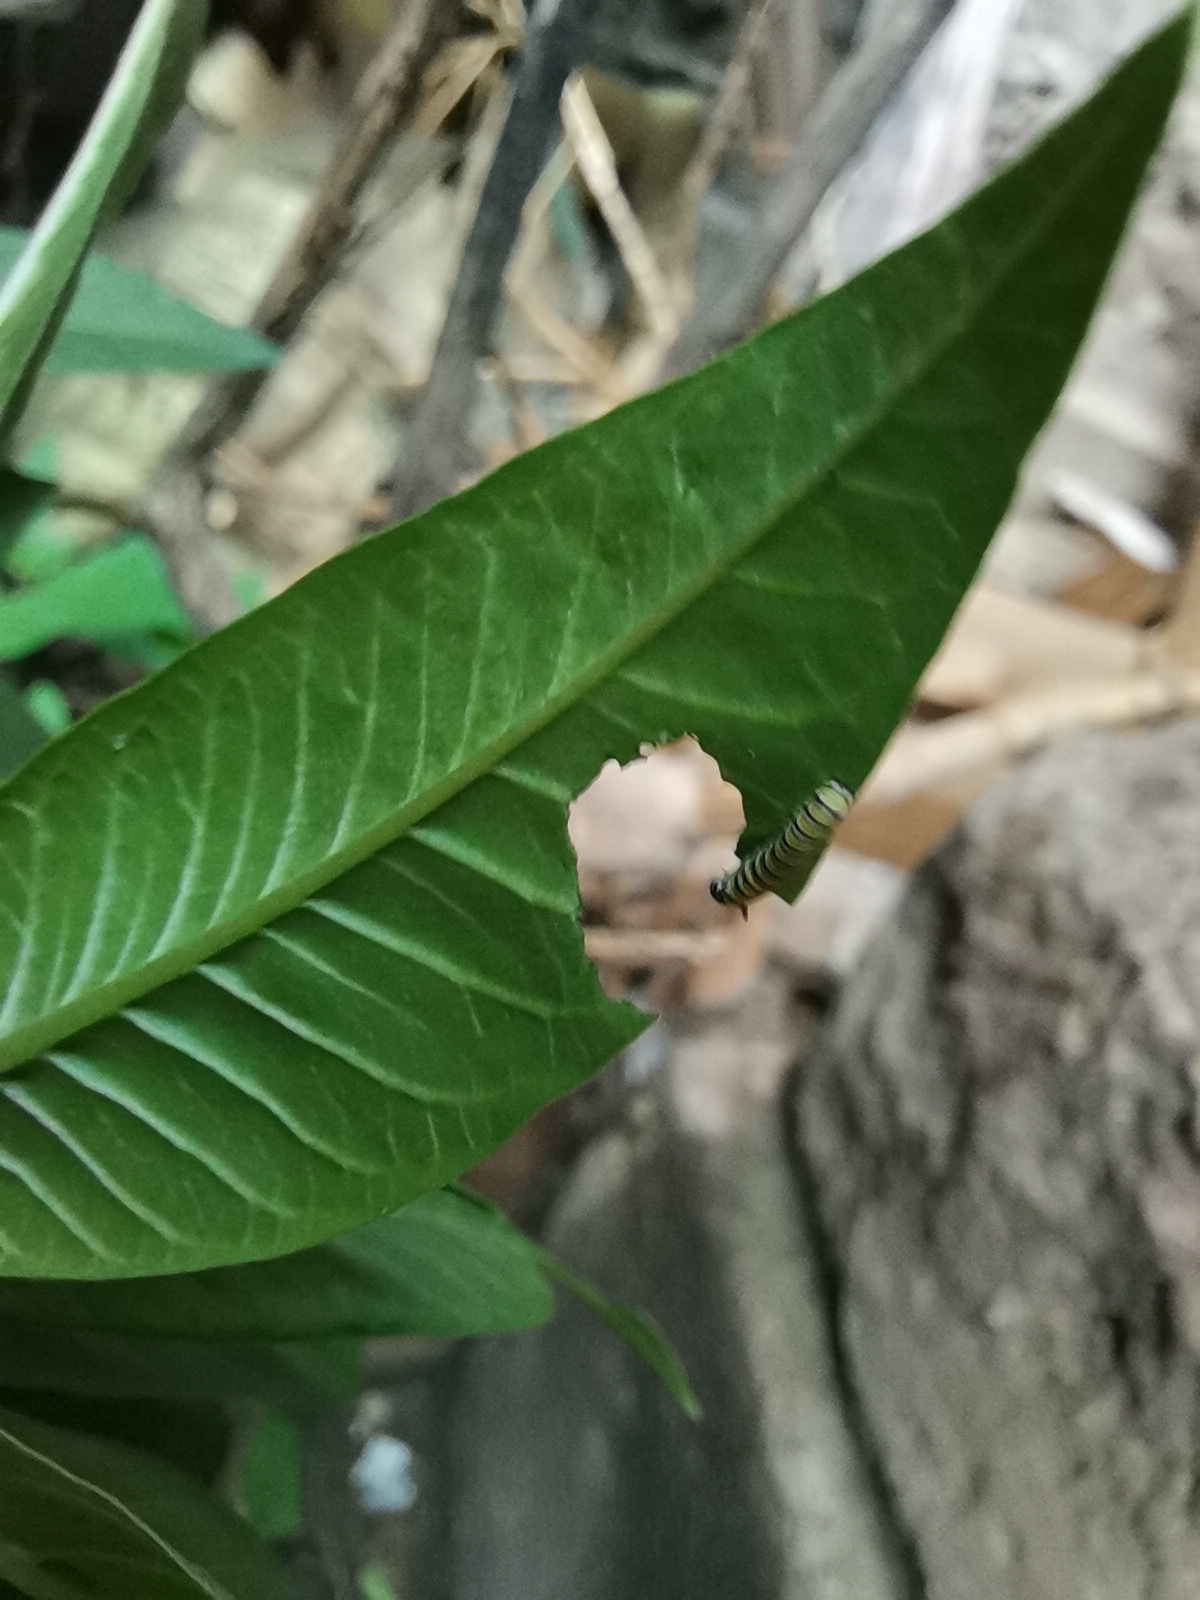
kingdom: Animalia
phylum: Arthropoda
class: Insecta
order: Lepidoptera
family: Nymphalidae
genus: Danaus
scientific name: Danaus plexippus
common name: Monarch
